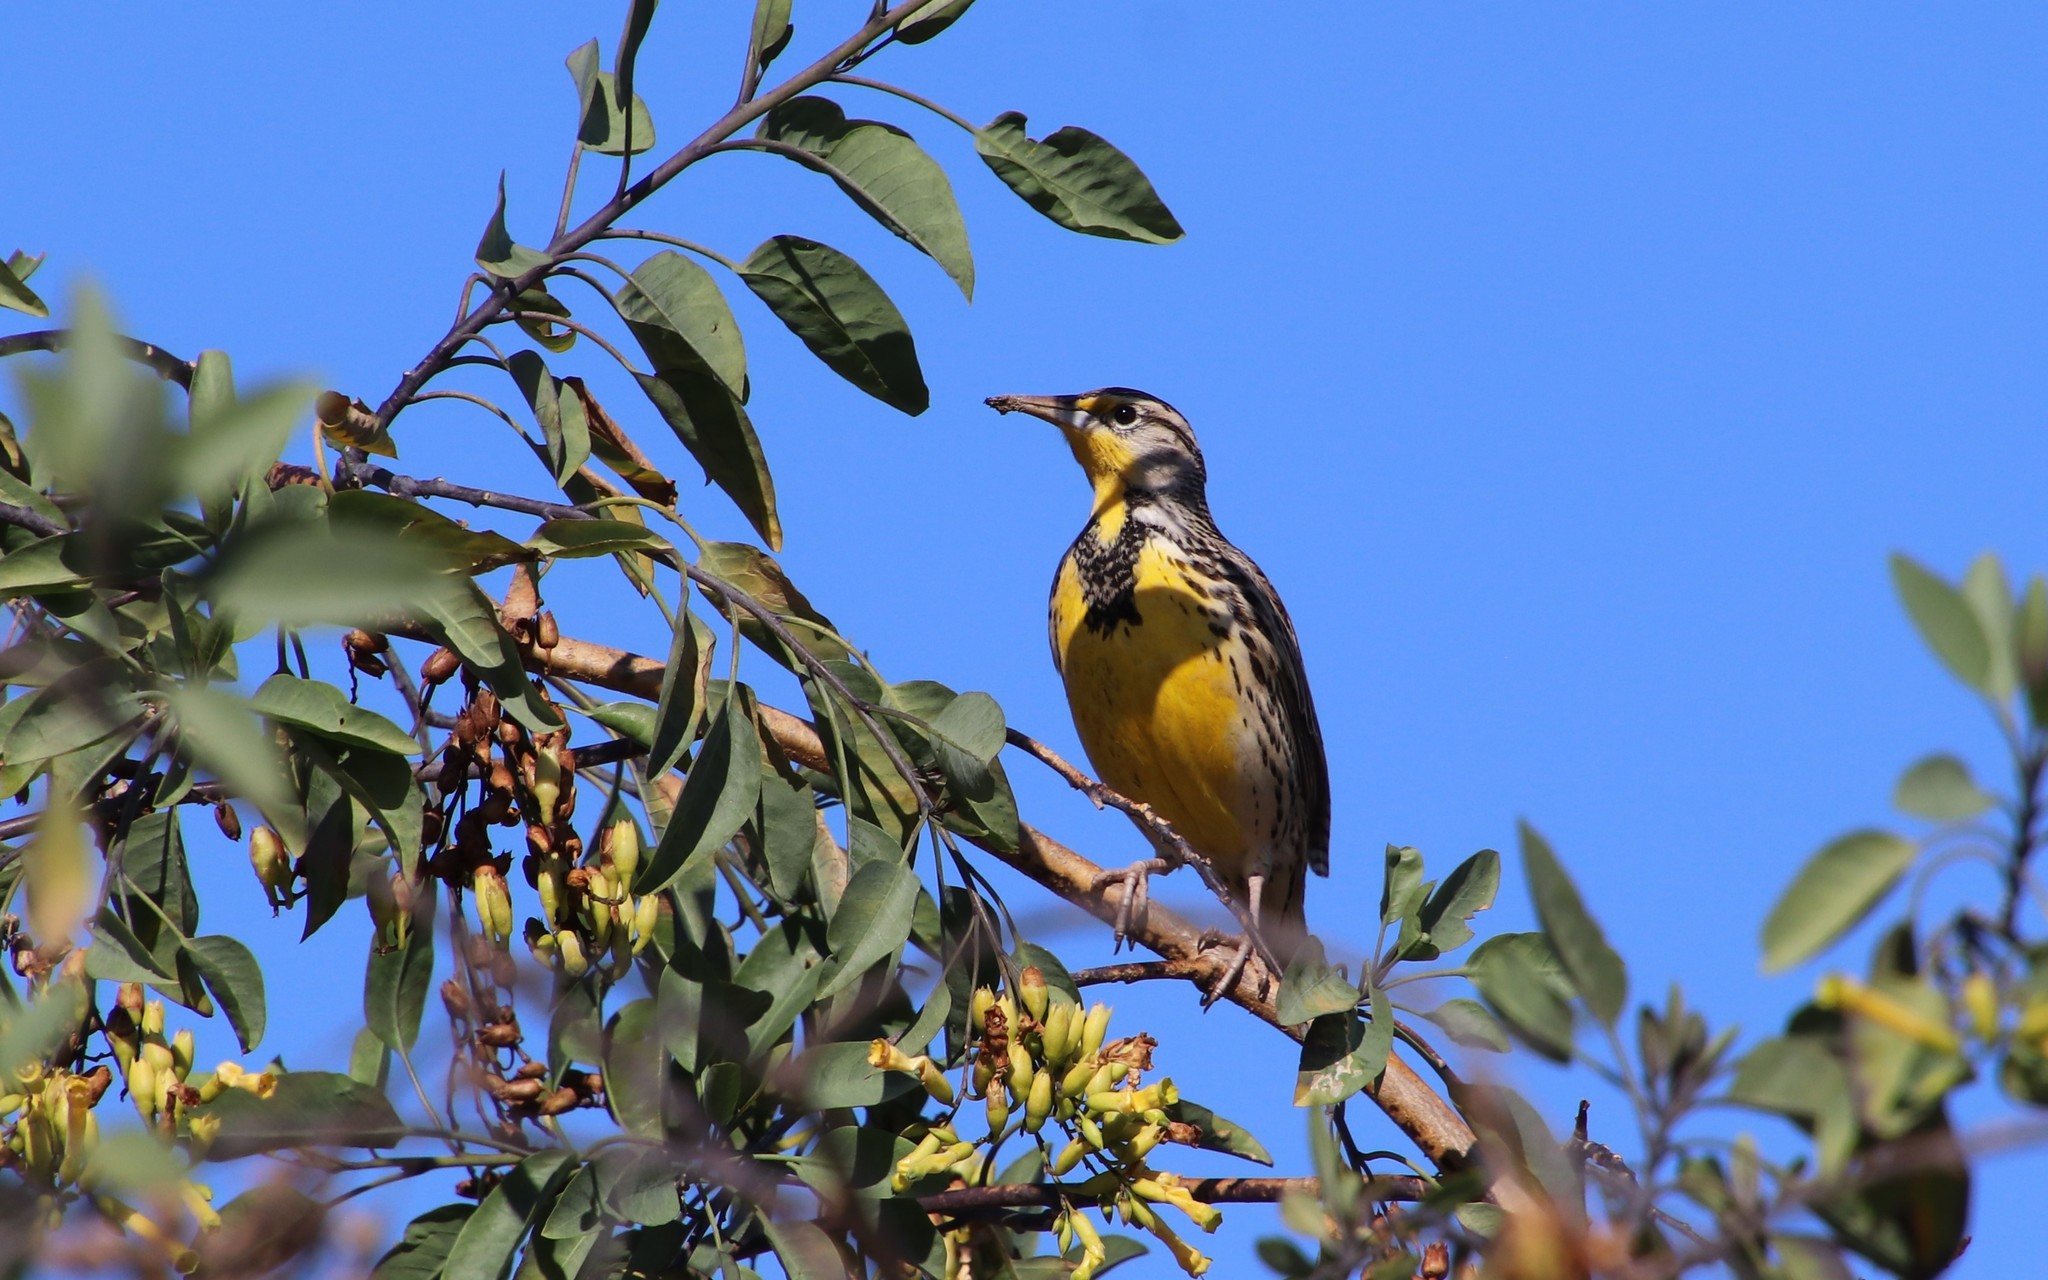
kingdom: Animalia
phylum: Chordata
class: Aves
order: Passeriformes
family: Icteridae
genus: Sturnella
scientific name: Sturnella neglecta
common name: Western meadowlark
